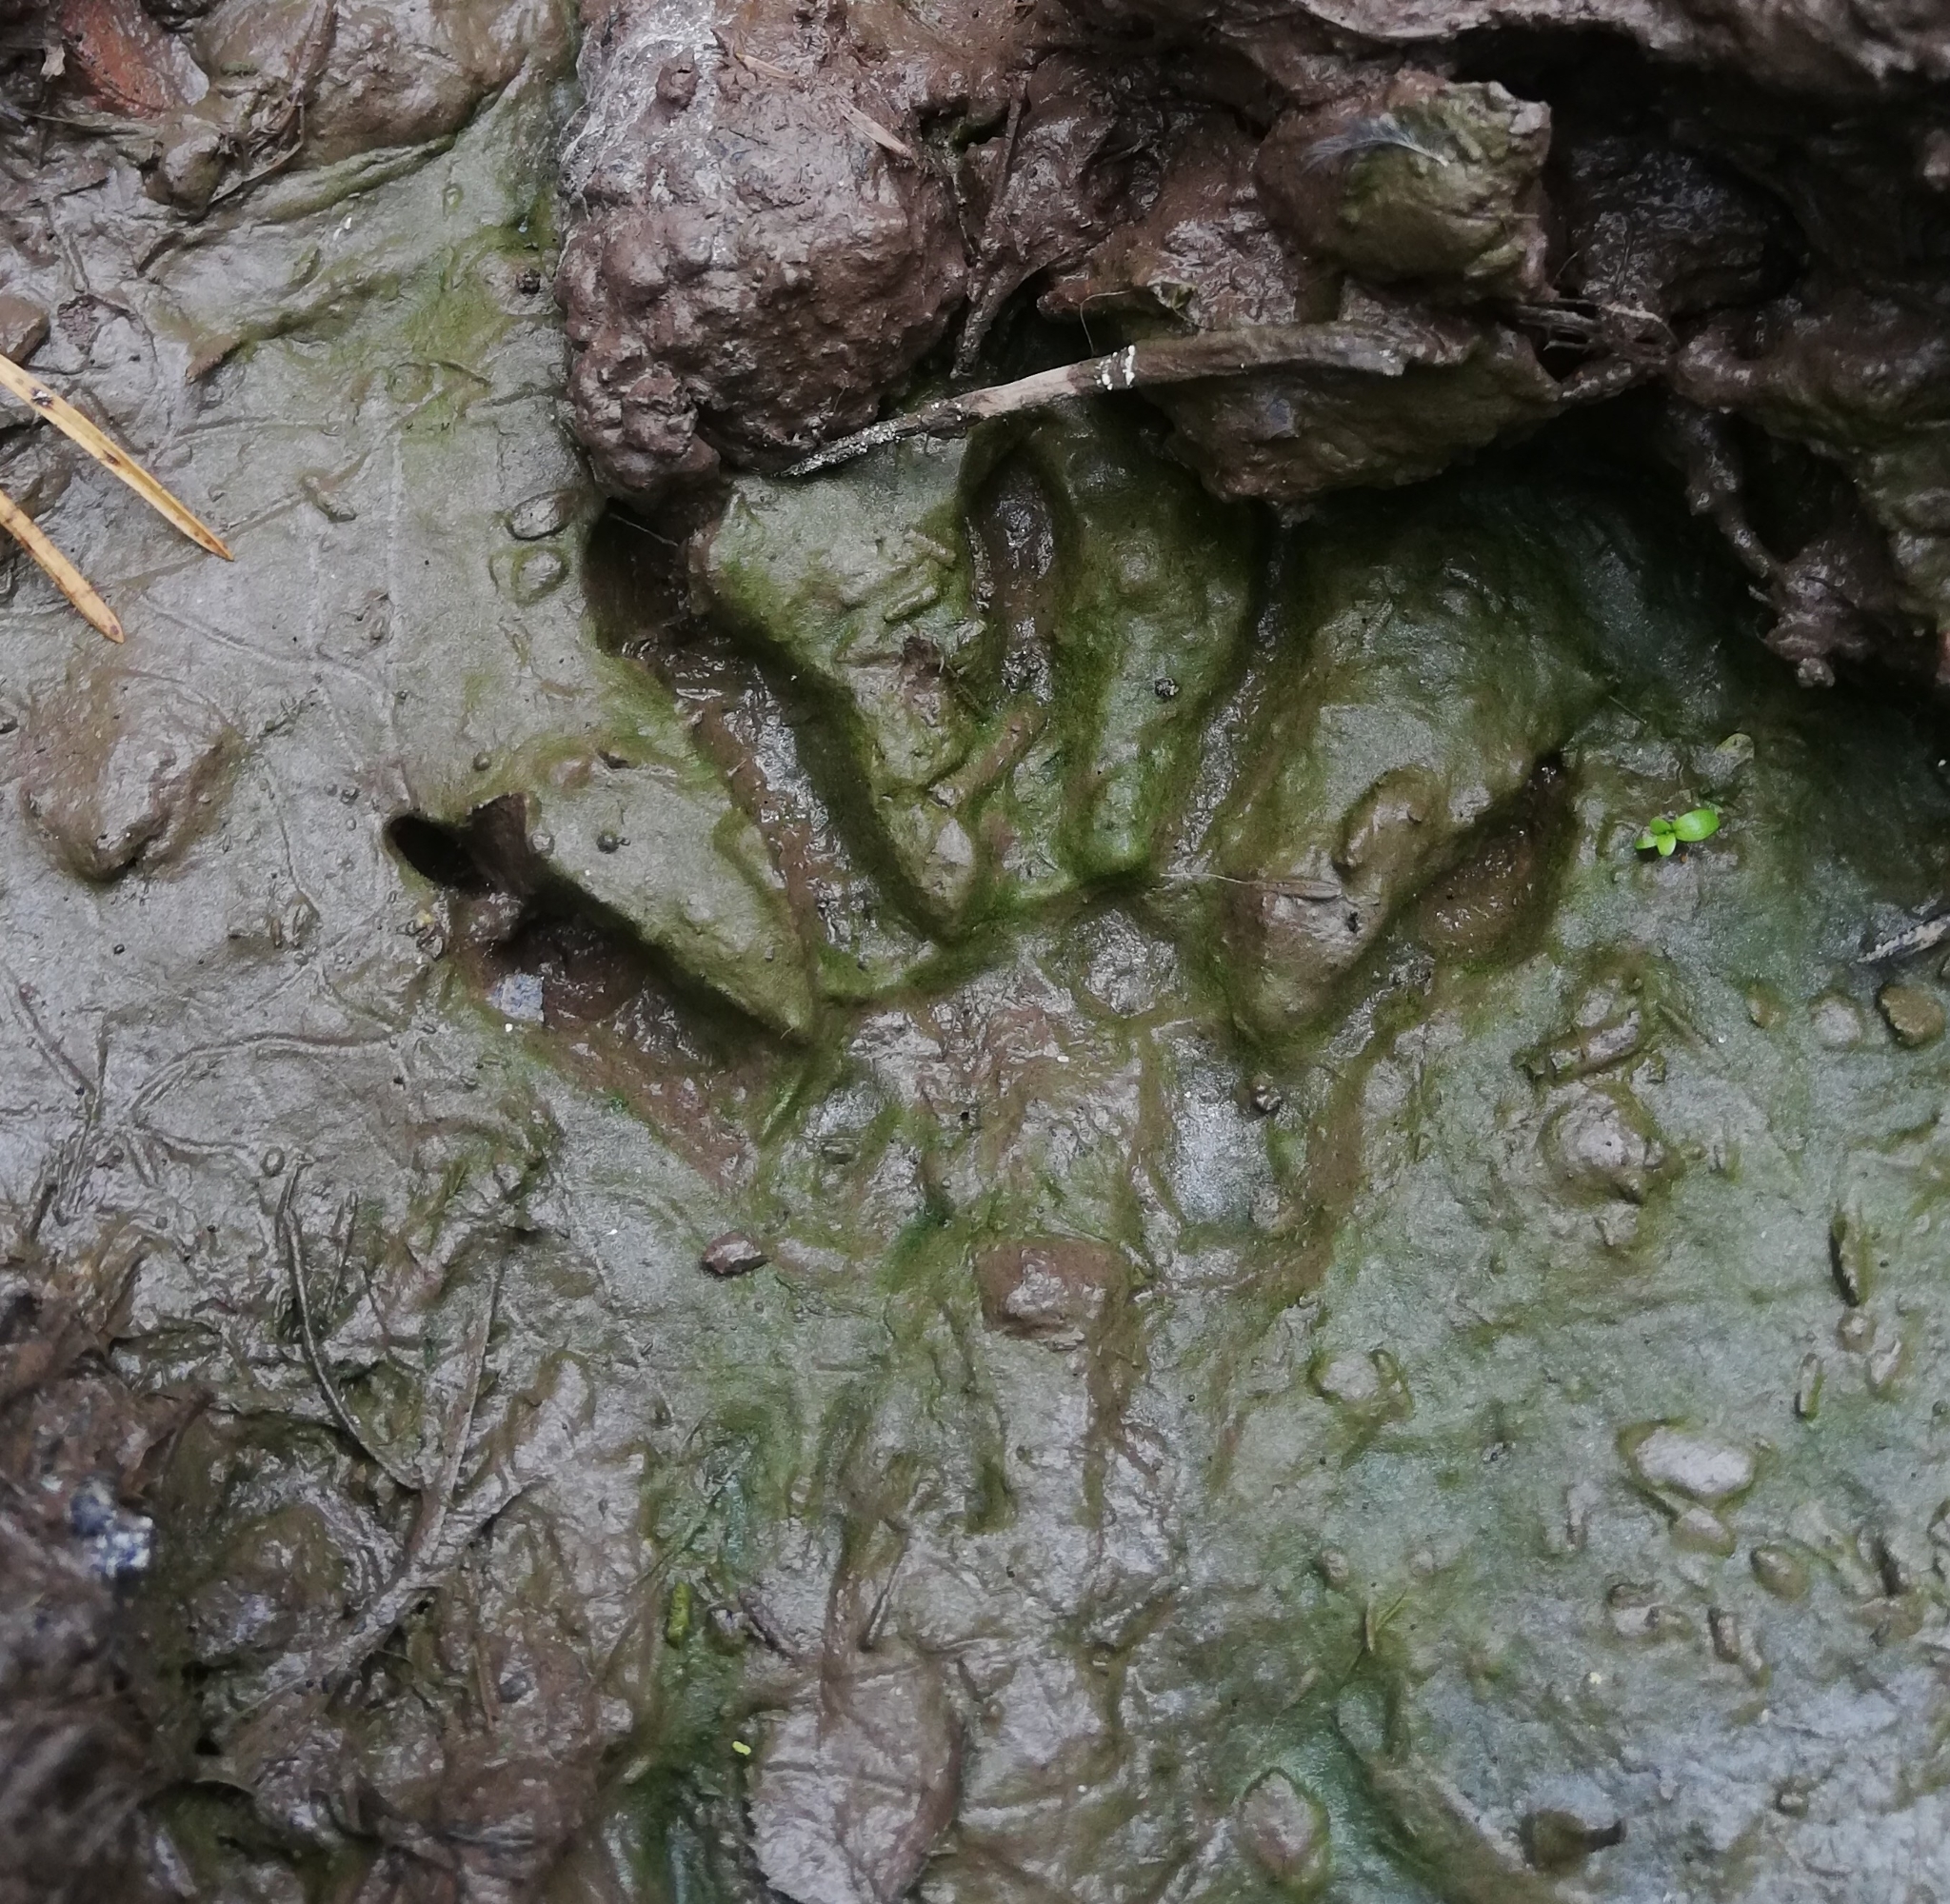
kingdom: Animalia
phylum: Chordata
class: Mammalia
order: Carnivora
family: Procyonidae
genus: Procyon
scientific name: Procyon lotor
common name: Raccoon
